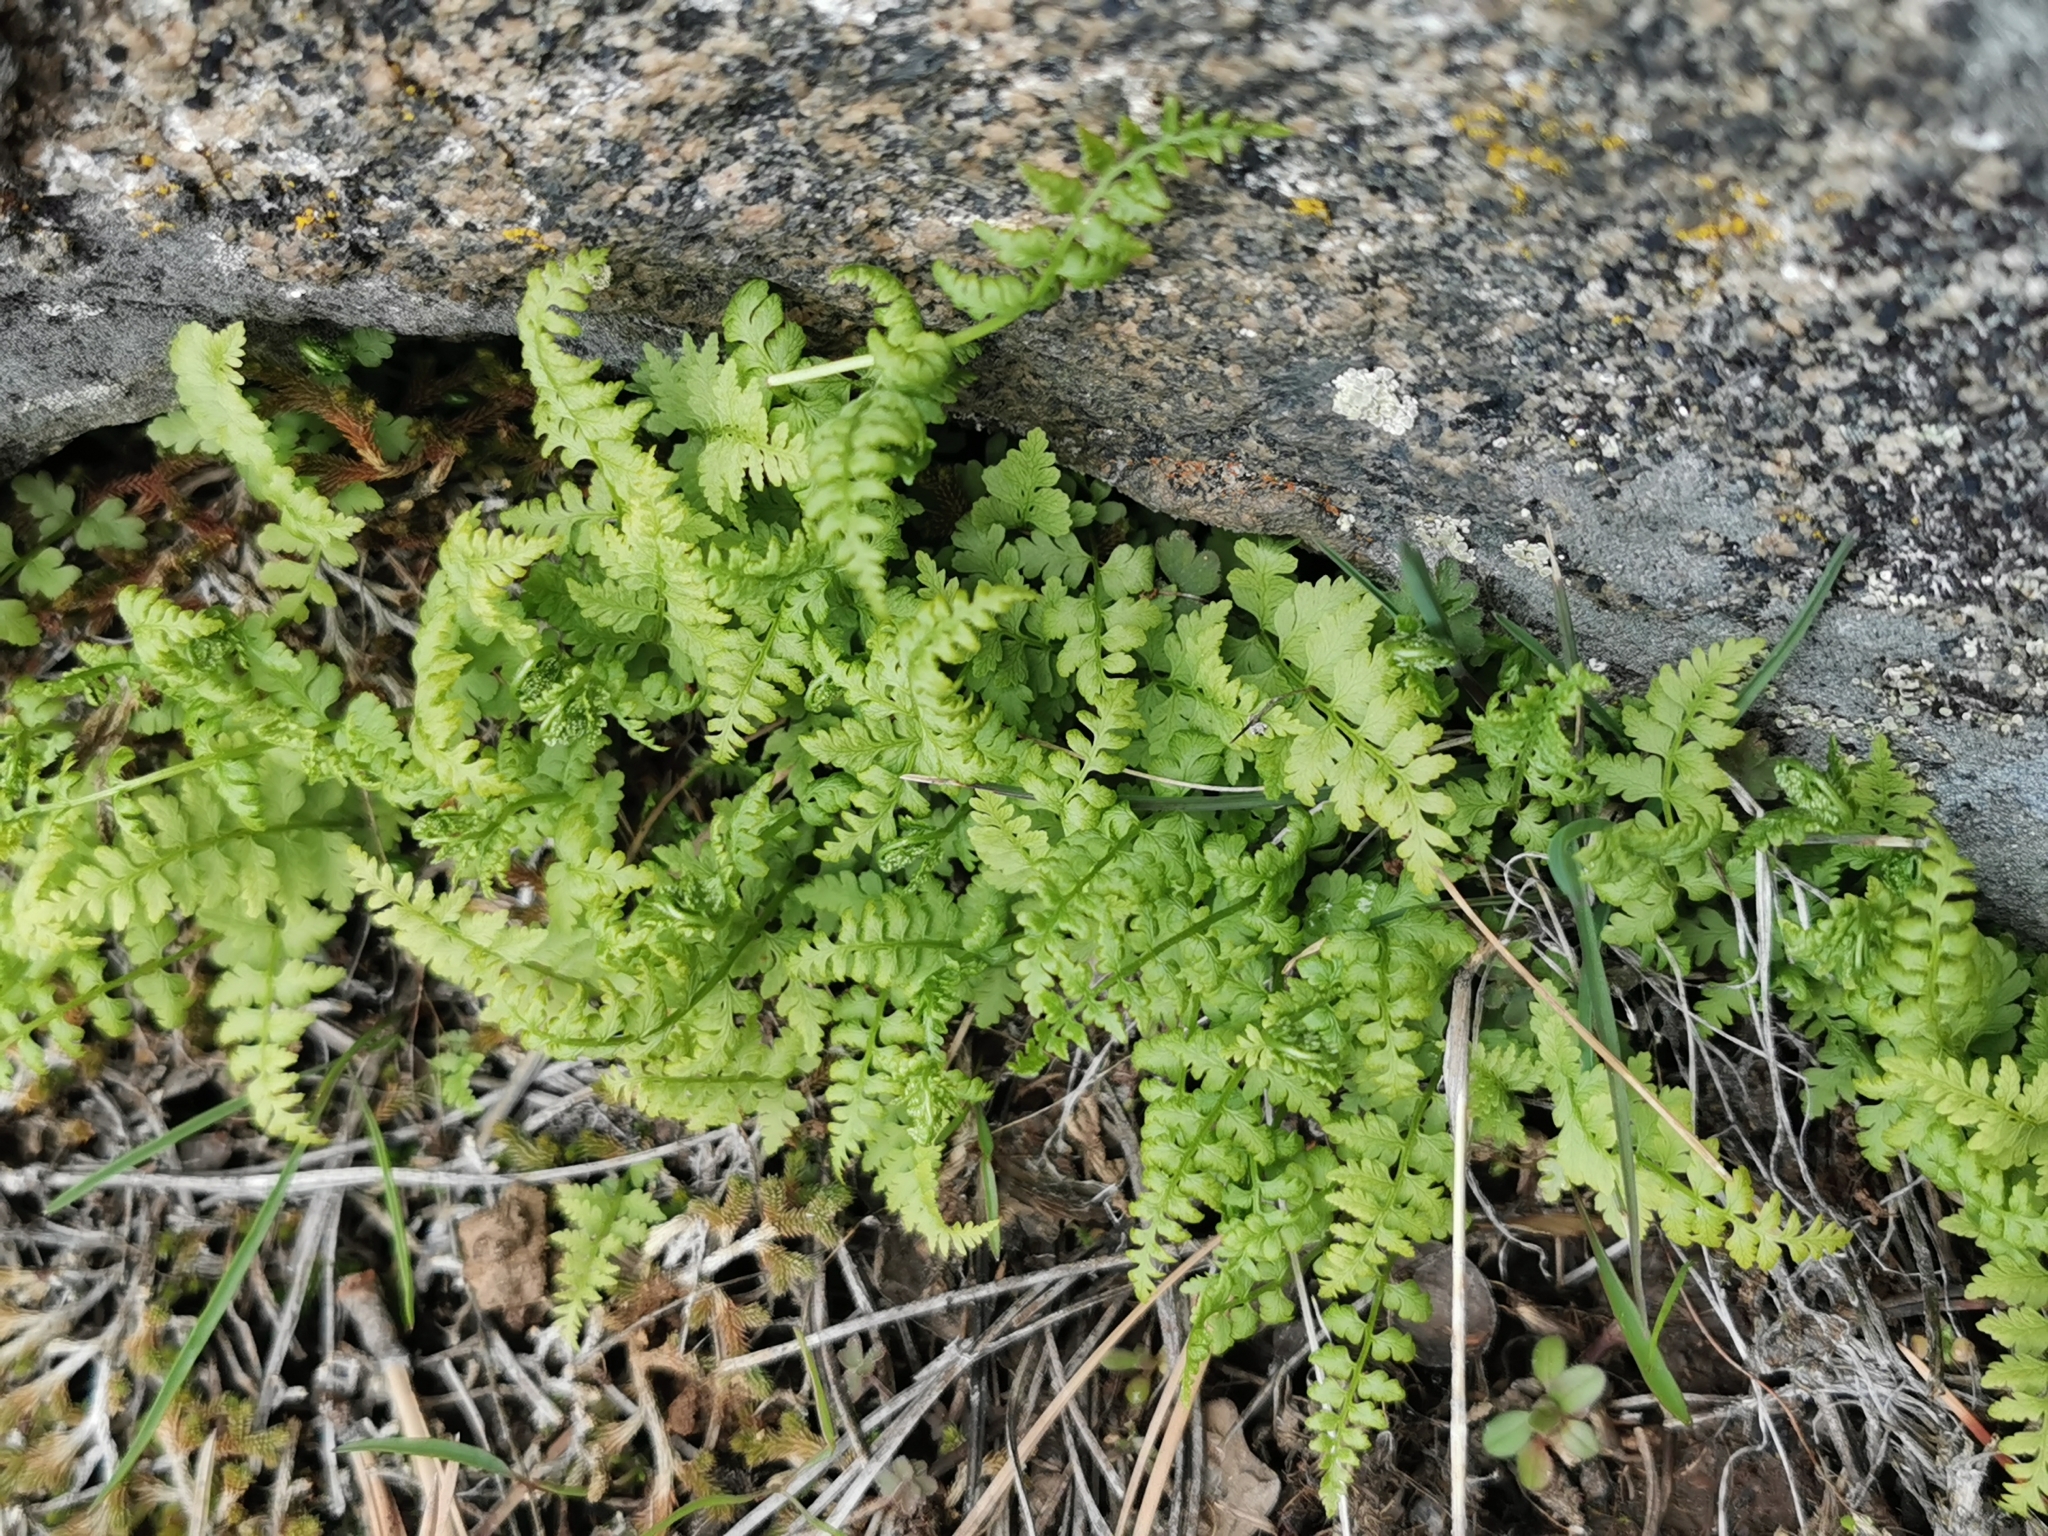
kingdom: Plantae
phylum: Tracheophyta
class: Polypodiopsida
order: Polypodiales
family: Cystopteridaceae
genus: Cystopteris
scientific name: Cystopteris fragilis
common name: Brittle bladder fern
